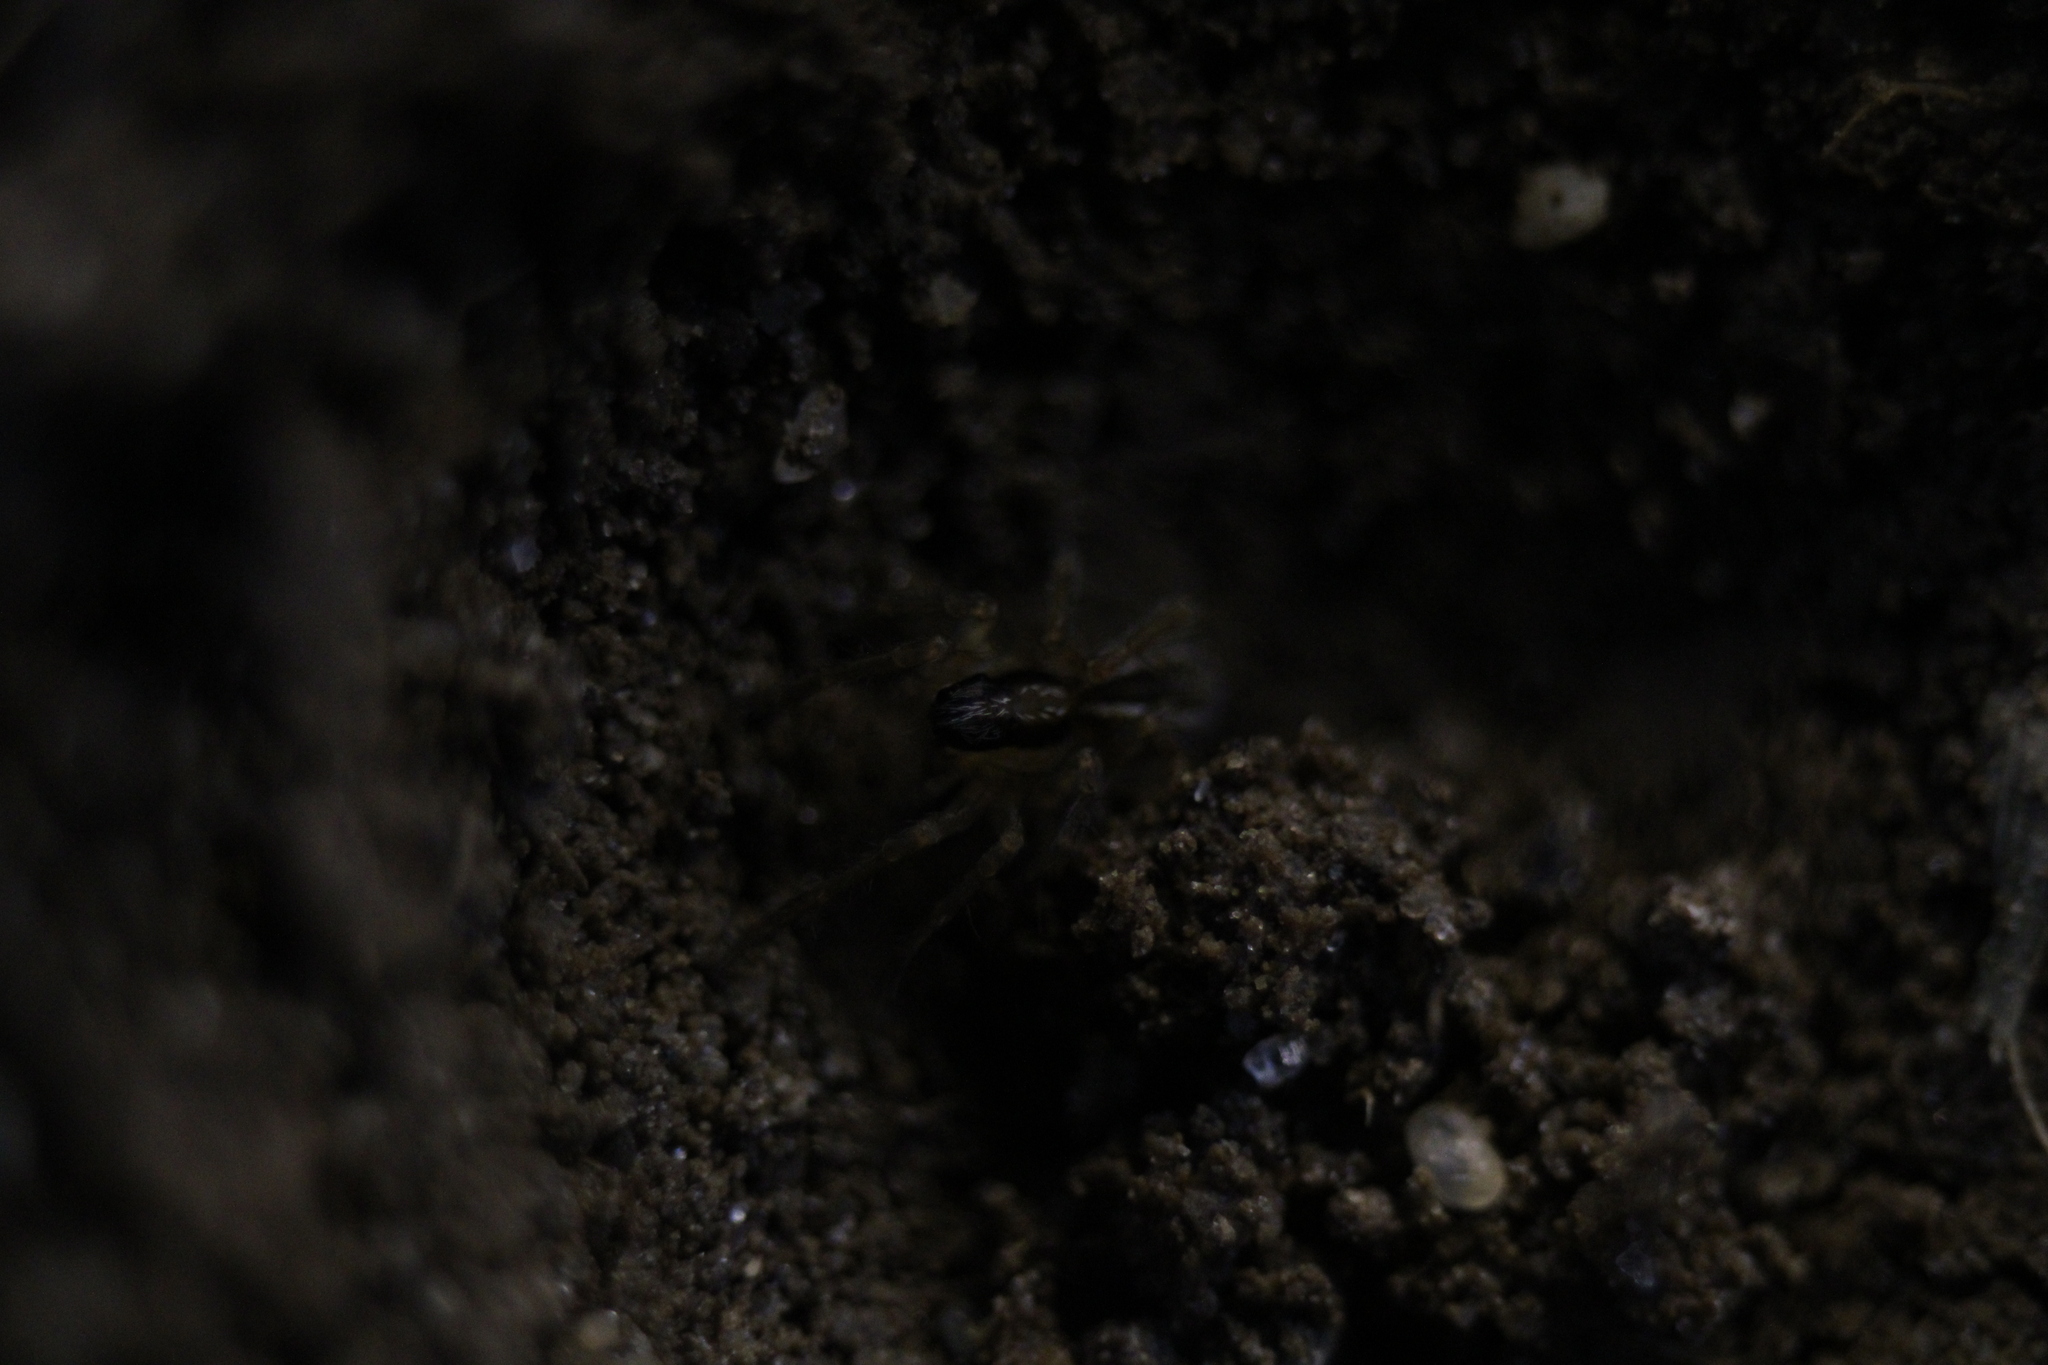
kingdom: Animalia
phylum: Arthropoda
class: Arachnida
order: Araneae
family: Lycosidae
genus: Rabidosa
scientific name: Rabidosa rabida
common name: Rabid wolf spider
